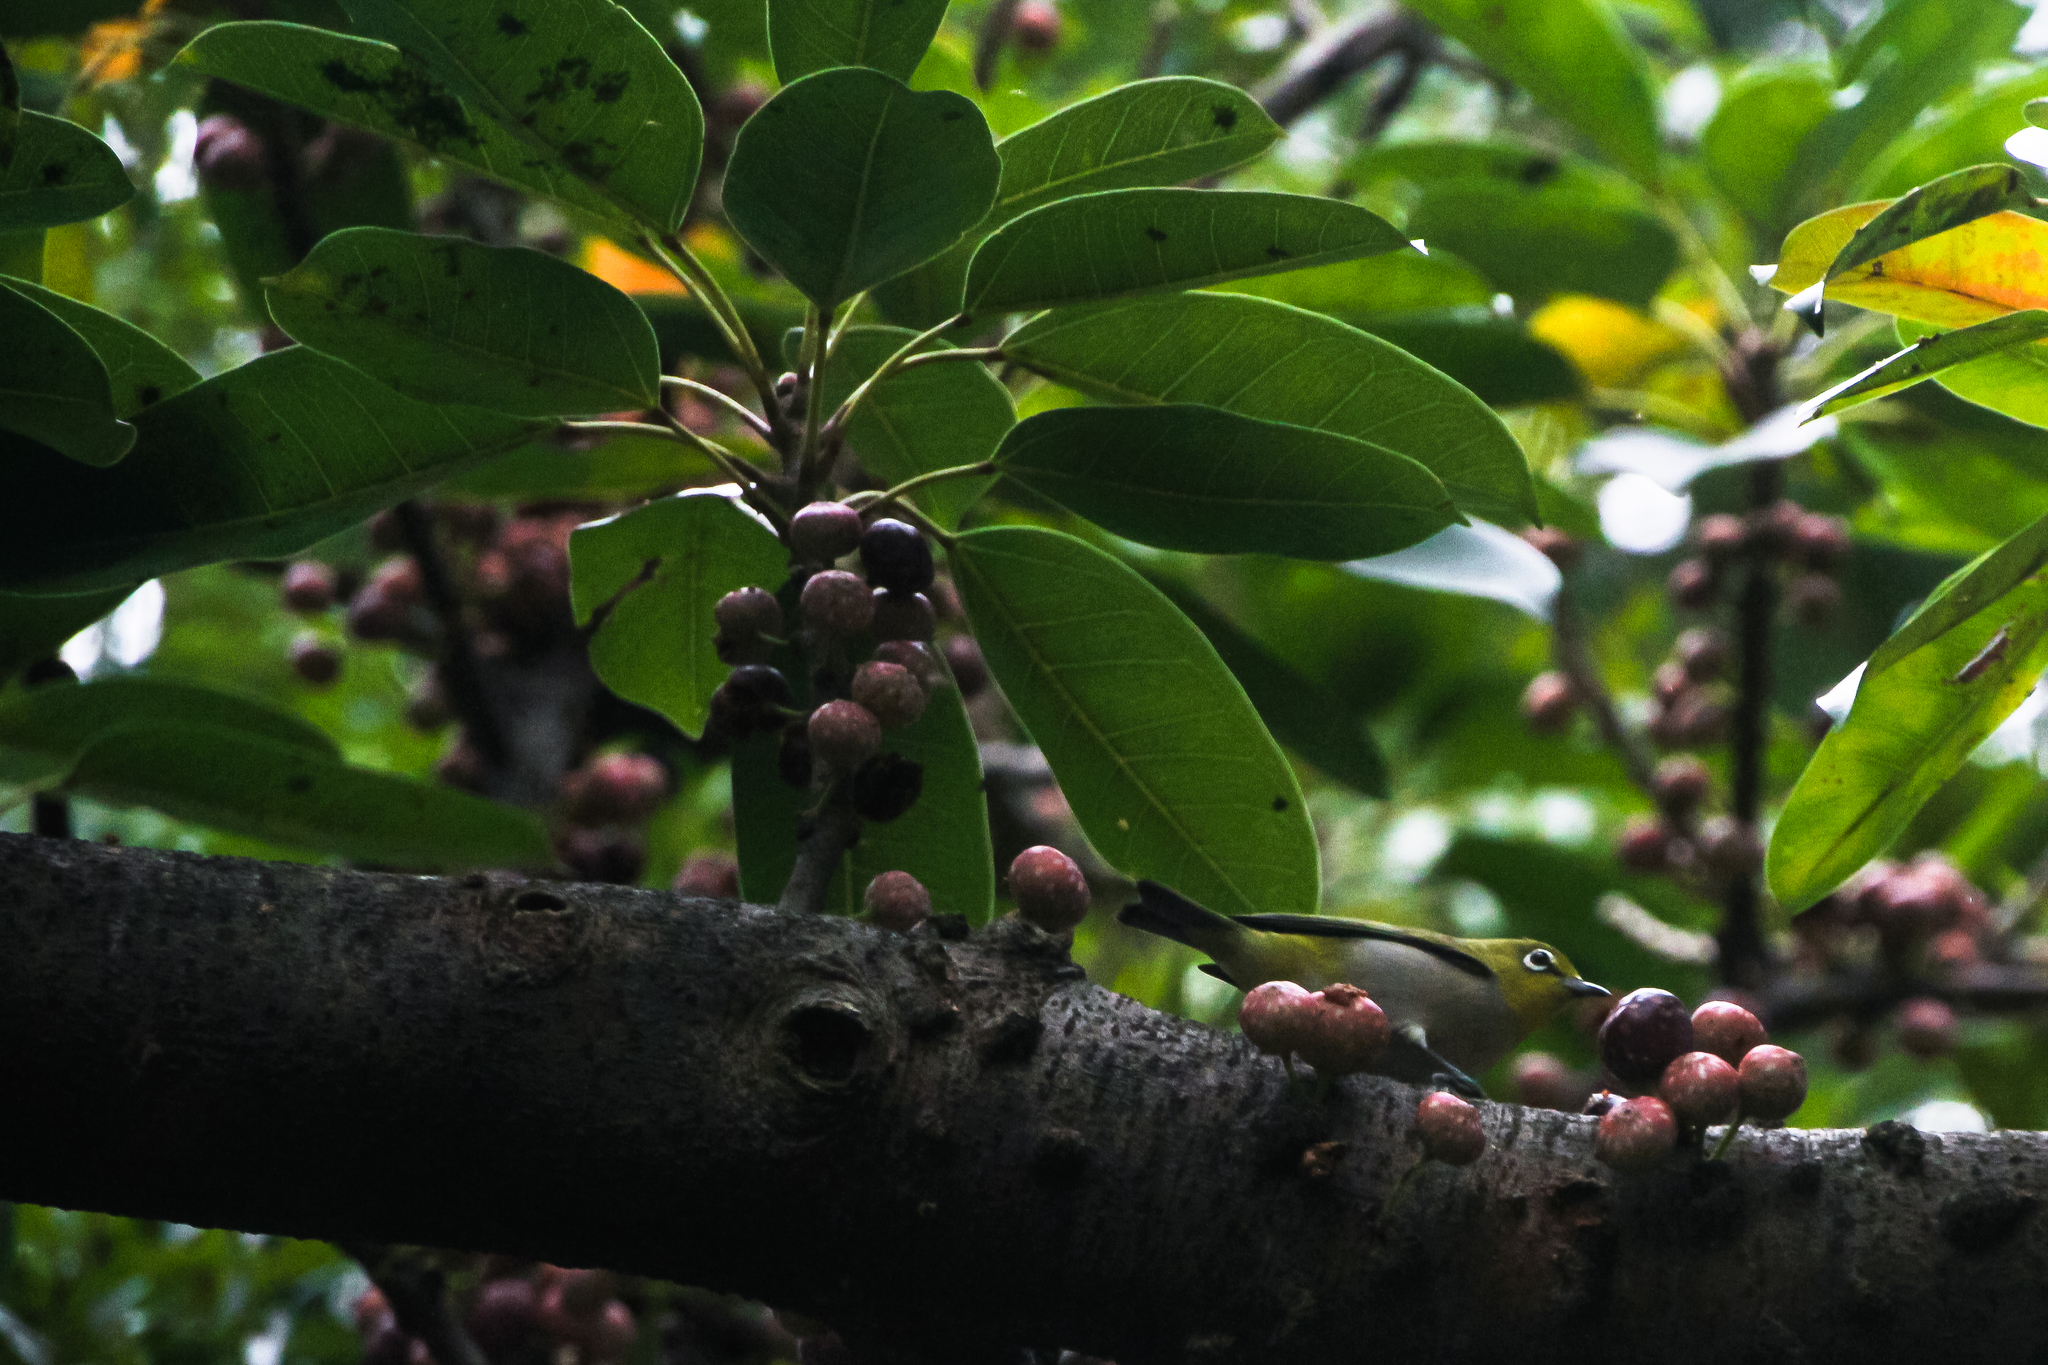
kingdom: Animalia
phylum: Chordata
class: Aves
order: Passeriformes
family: Zosteropidae
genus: Zosterops
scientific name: Zosterops simplex
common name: Swinhoe's white-eye
